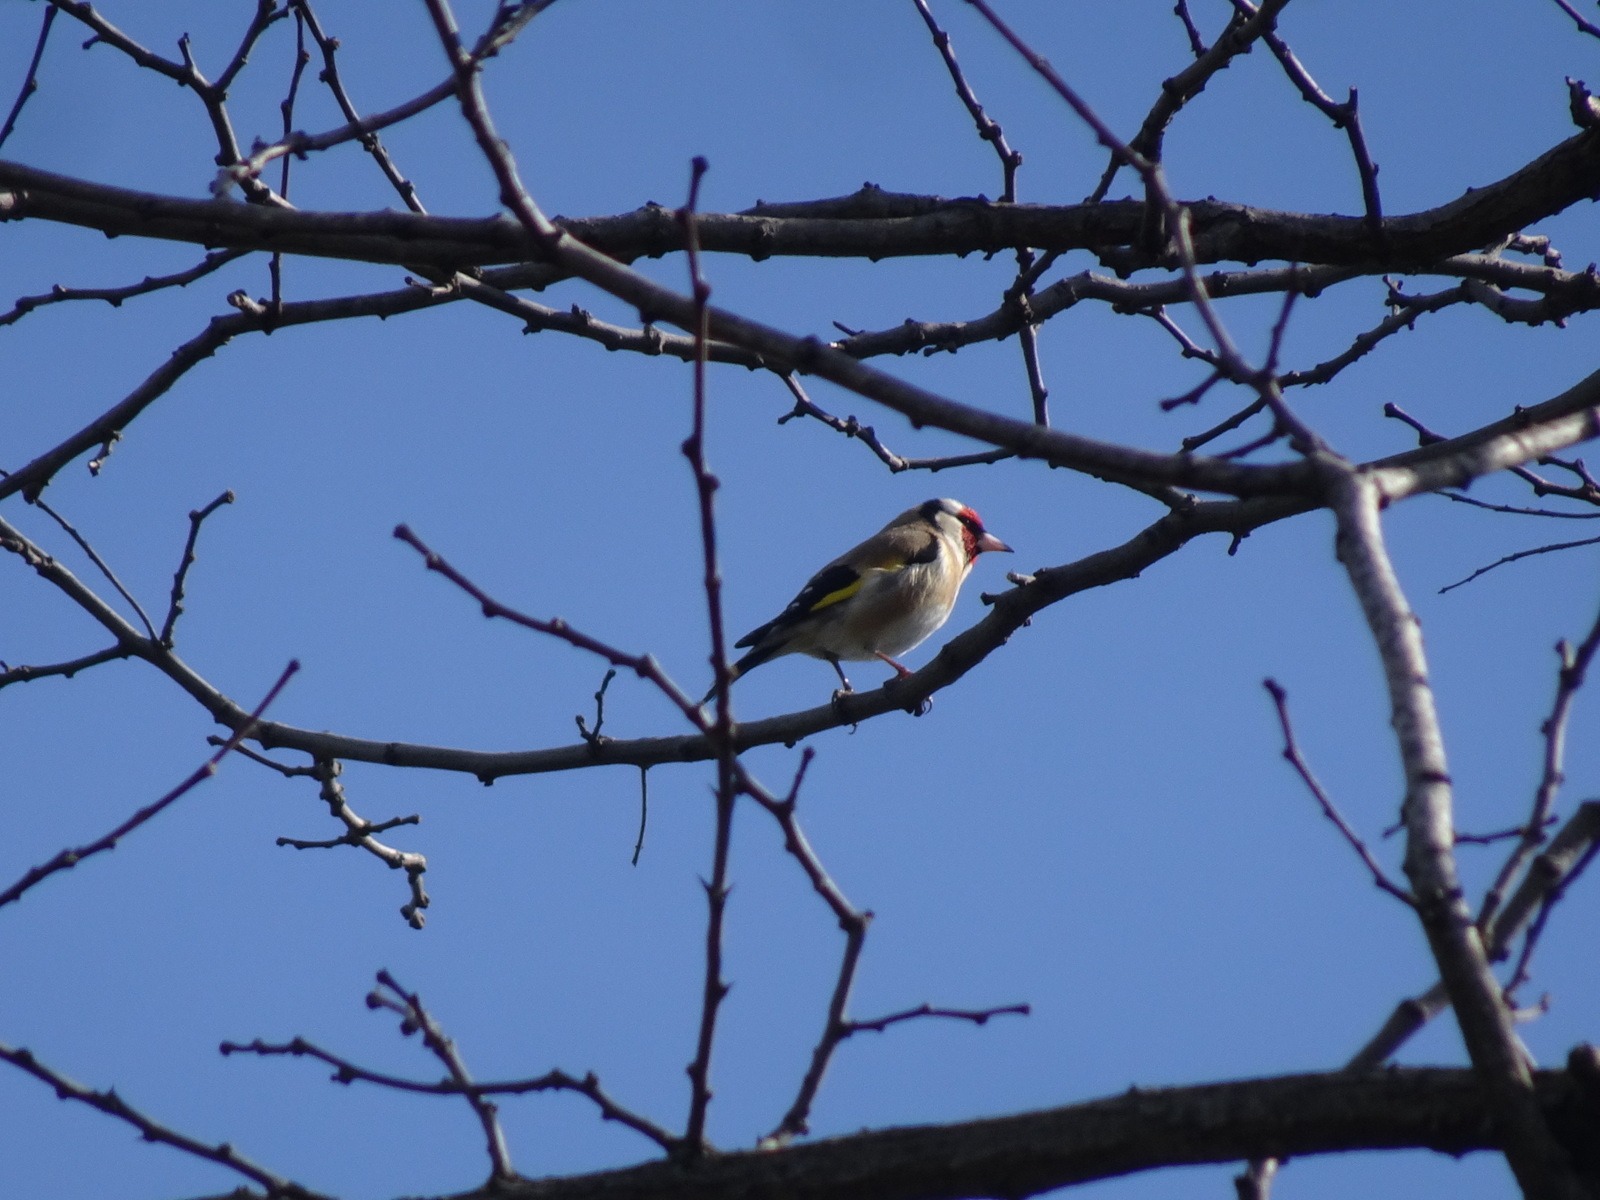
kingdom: Animalia
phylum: Chordata
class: Aves
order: Passeriformes
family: Fringillidae
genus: Carduelis
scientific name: Carduelis carduelis
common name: European goldfinch
